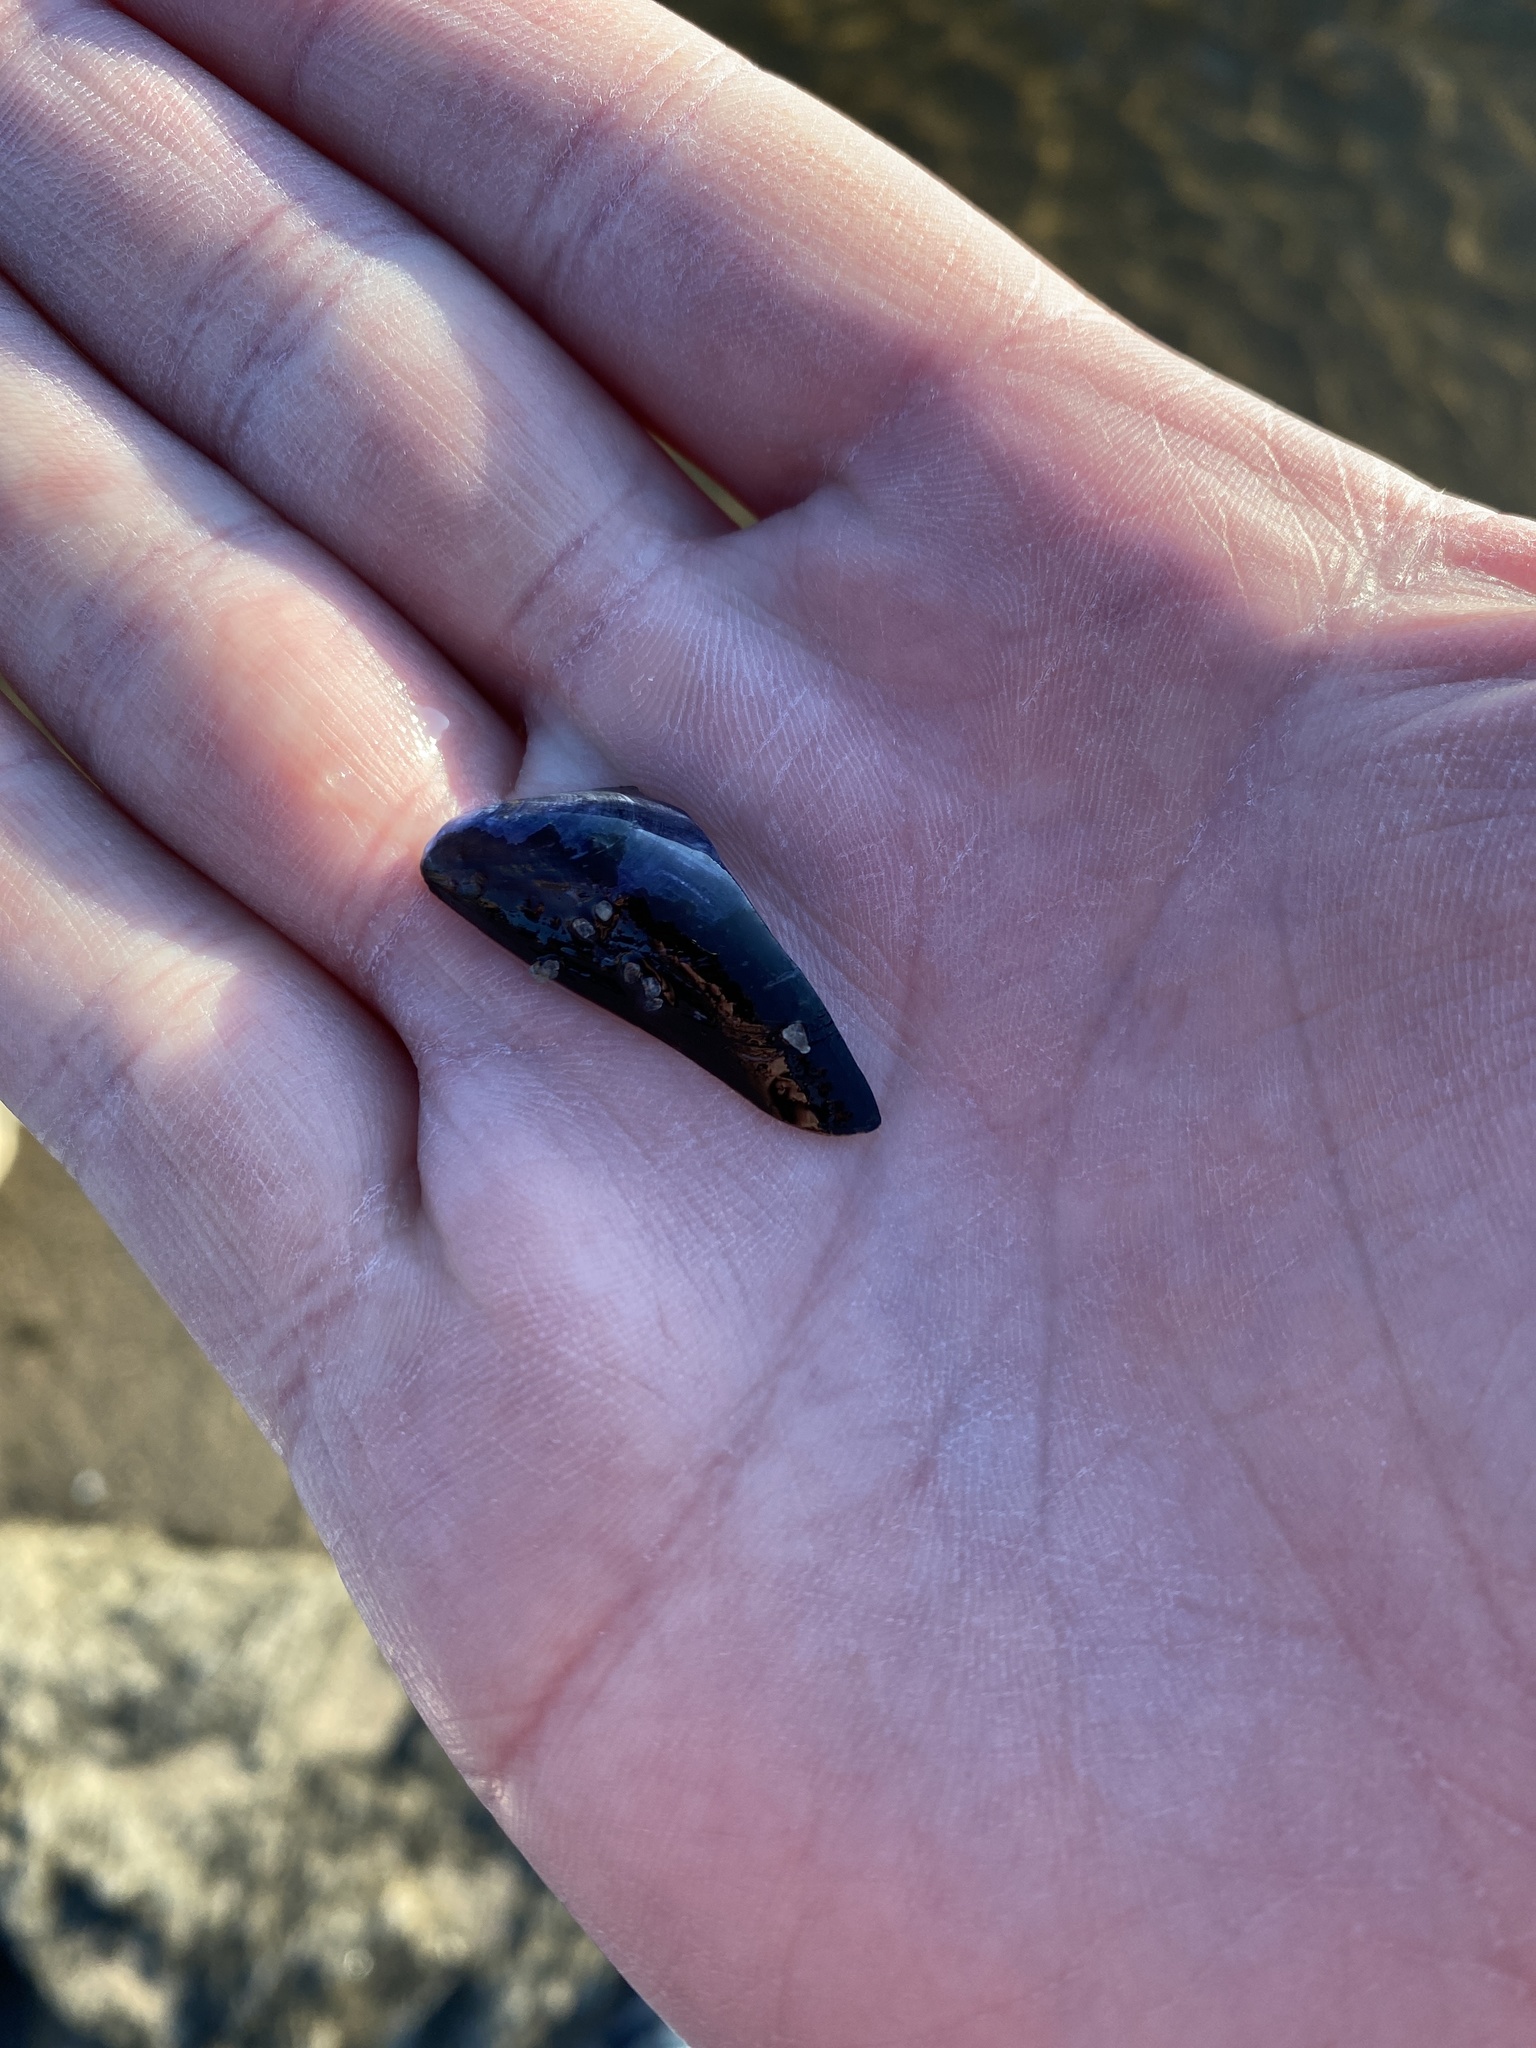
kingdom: Animalia
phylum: Mollusca
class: Bivalvia
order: Mytilida
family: Mytilidae
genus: Mytilus
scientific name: Mytilus edulis
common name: Blue mussel
